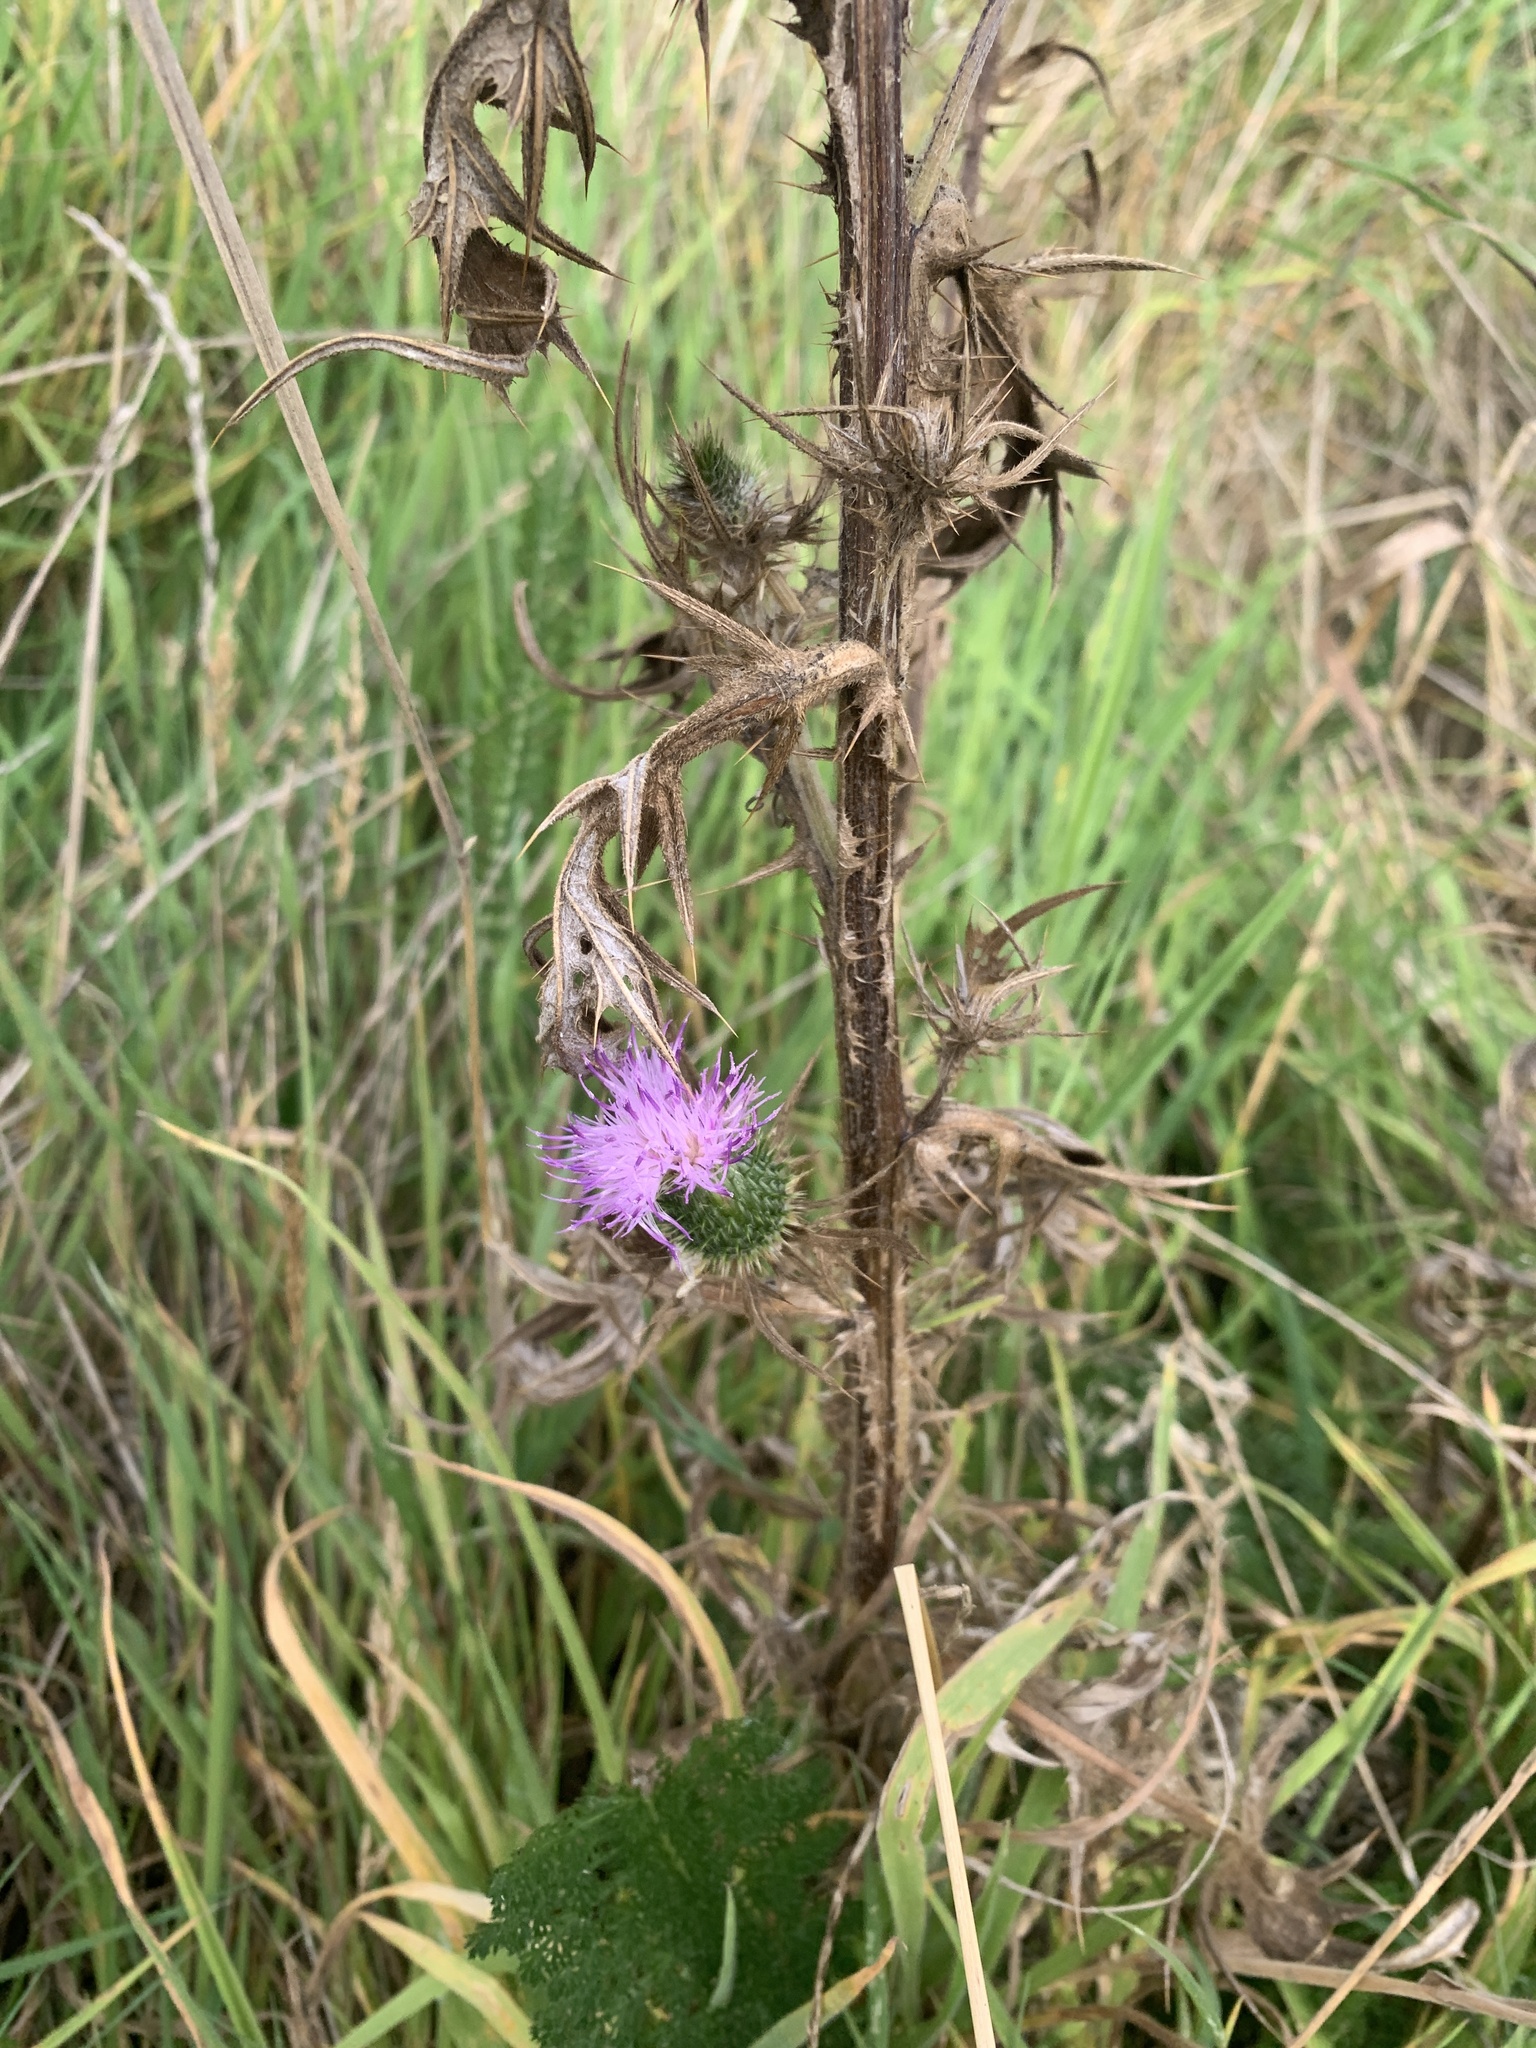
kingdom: Plantae
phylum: Tracheophyta
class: Magnoliopsida
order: Asterales
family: Asteraceae
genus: Cirsium
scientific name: Cirsium vulgare
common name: Bull thistle
